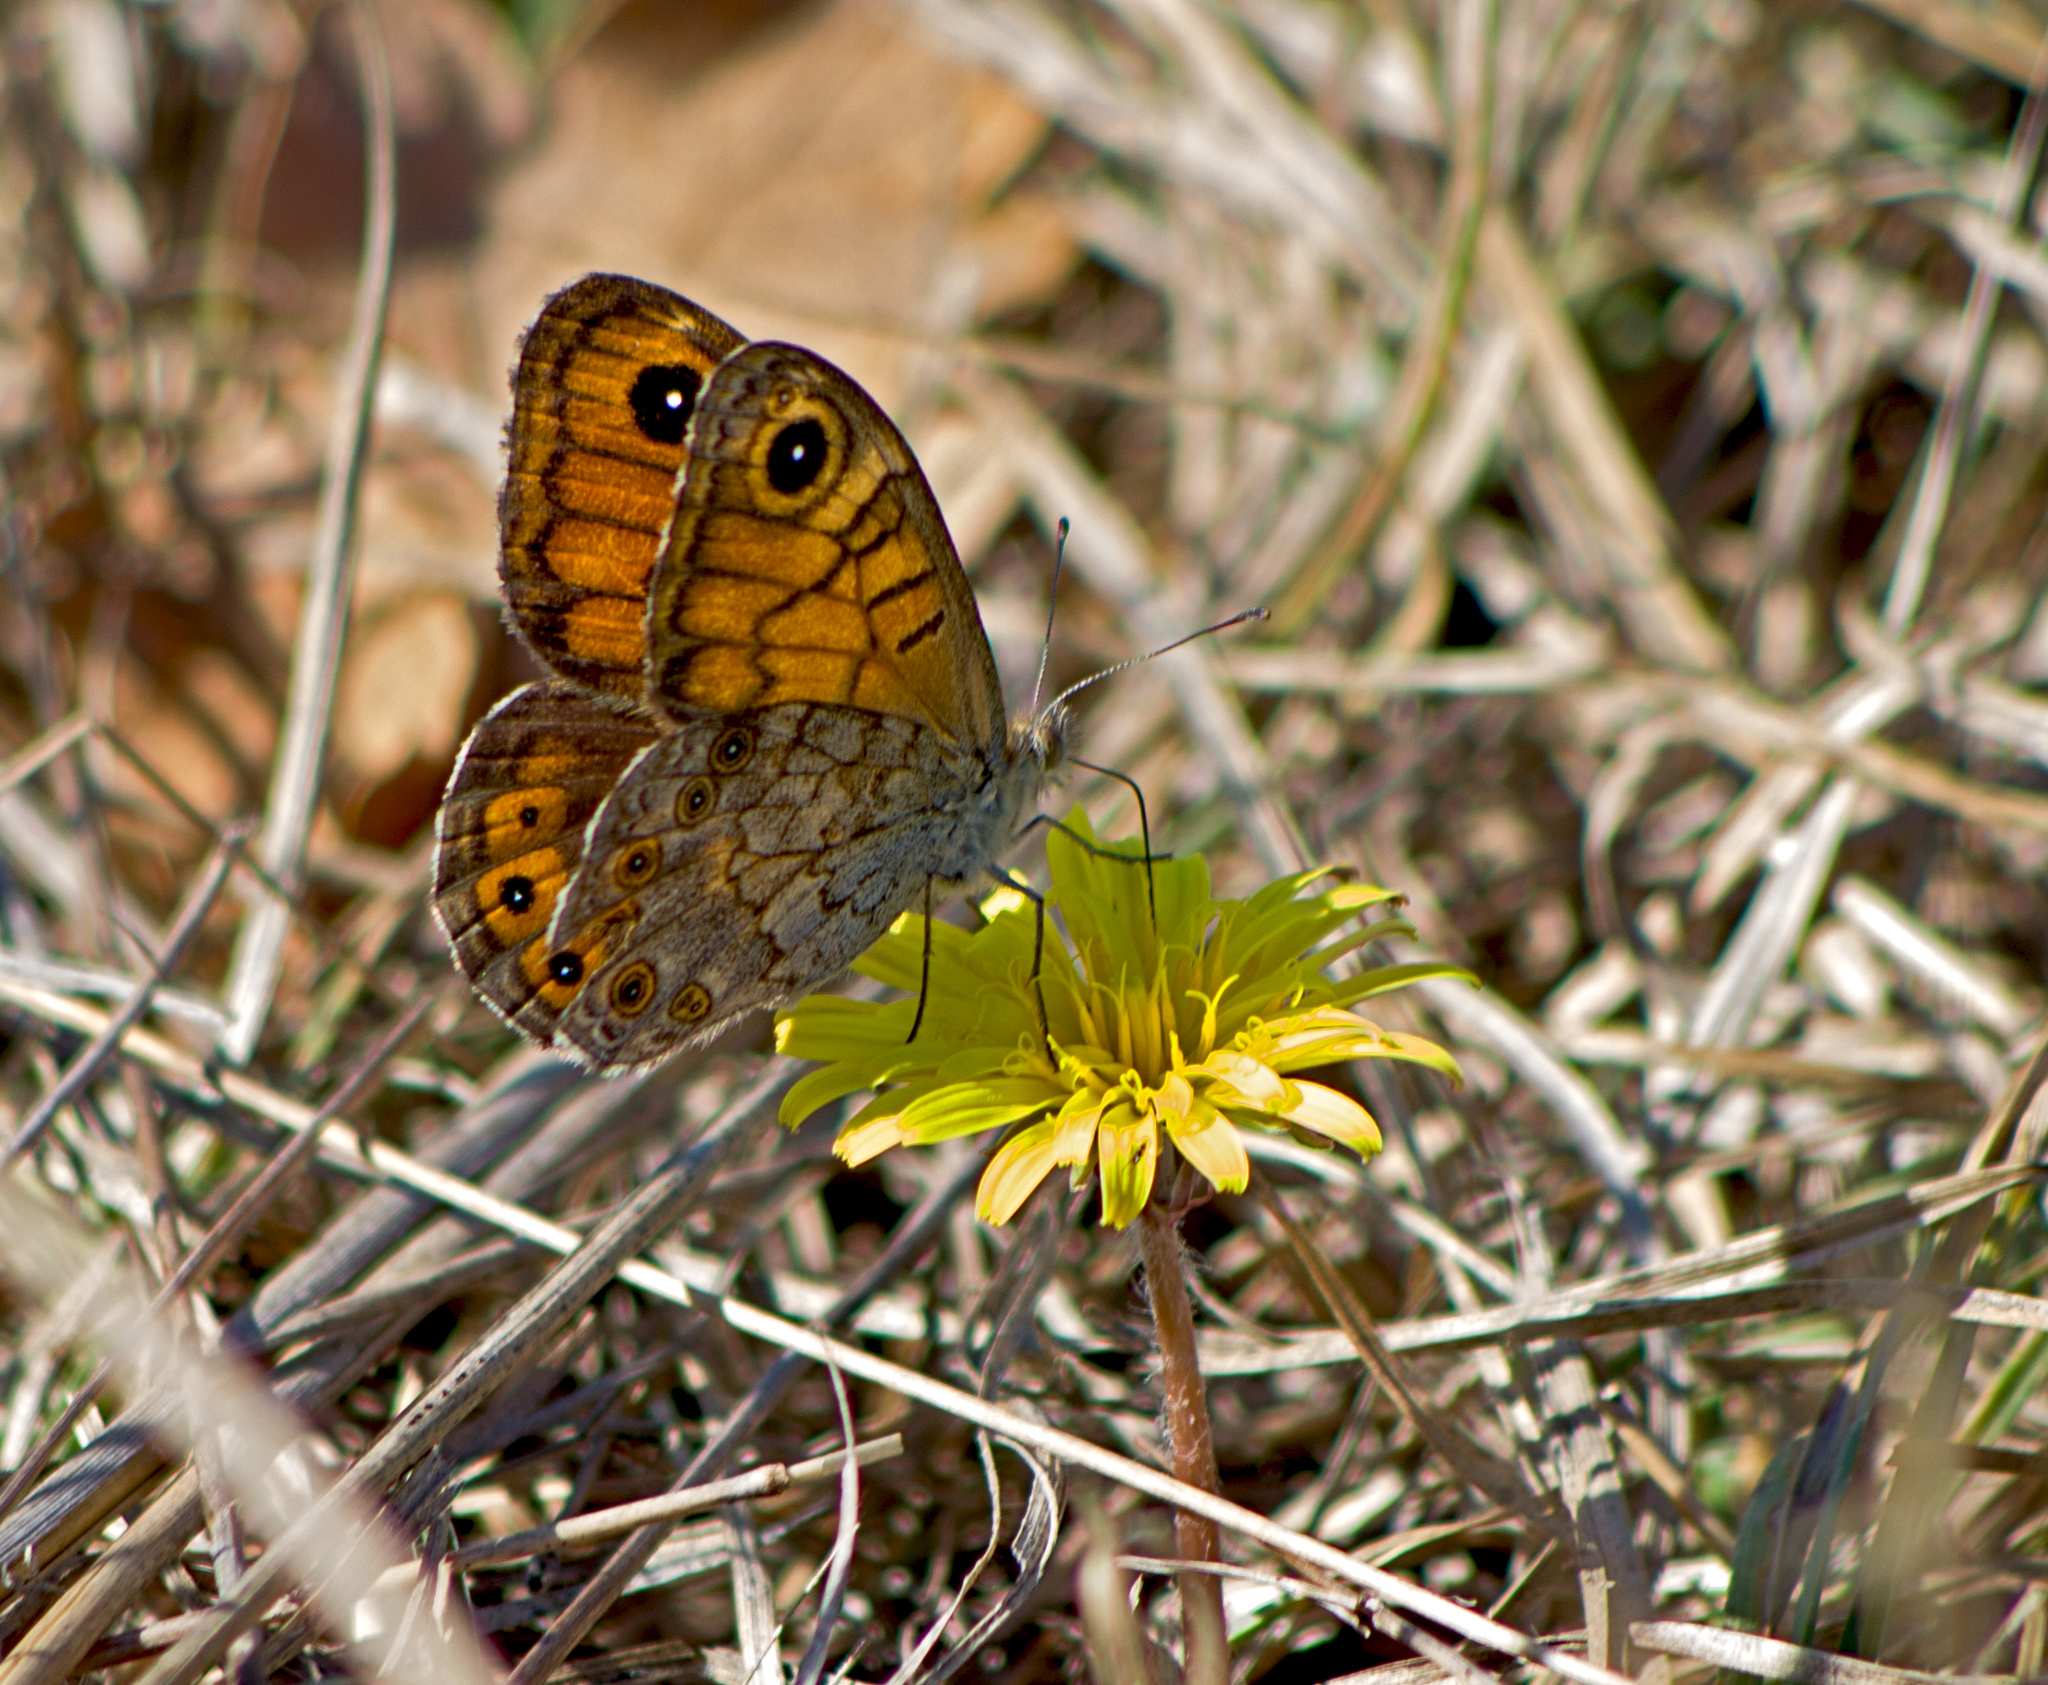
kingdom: Animalia
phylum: Arthropoda
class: Insecta
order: Lepidoptera
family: Nymphalidae
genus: Pararge
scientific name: Pararge Lasiommata megera
